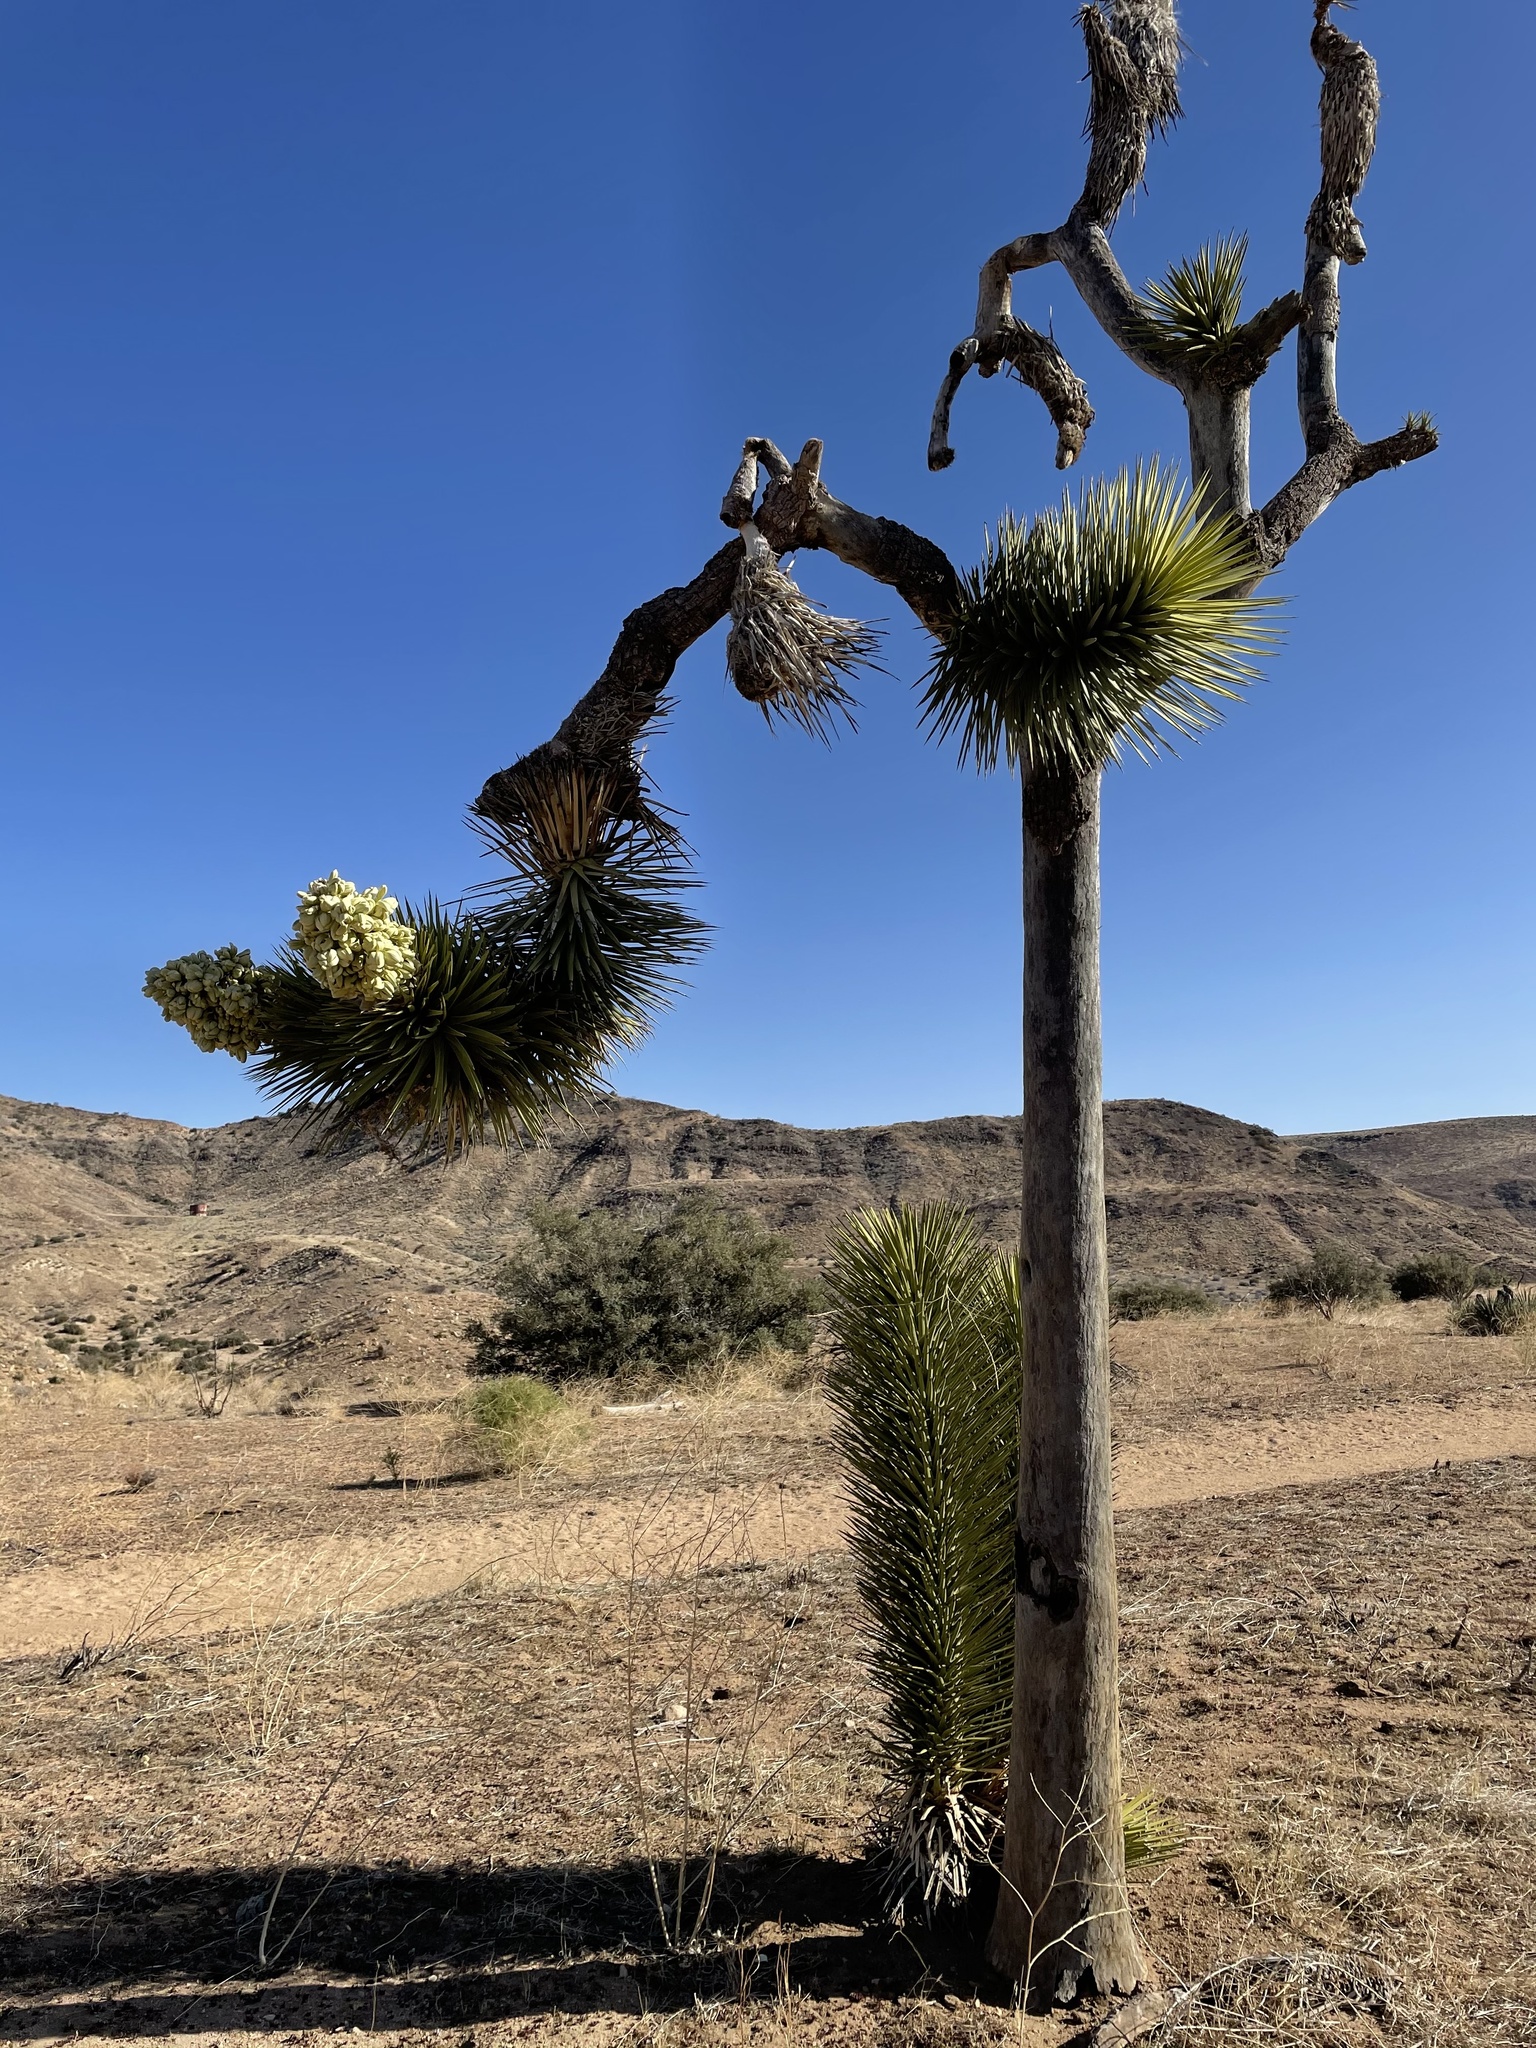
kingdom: Plantae
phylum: Tracheophyta
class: Liliopsida
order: Asparagales
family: Asparagaceae
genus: Yucca
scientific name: Yucca brevifolia
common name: Joshua tree
